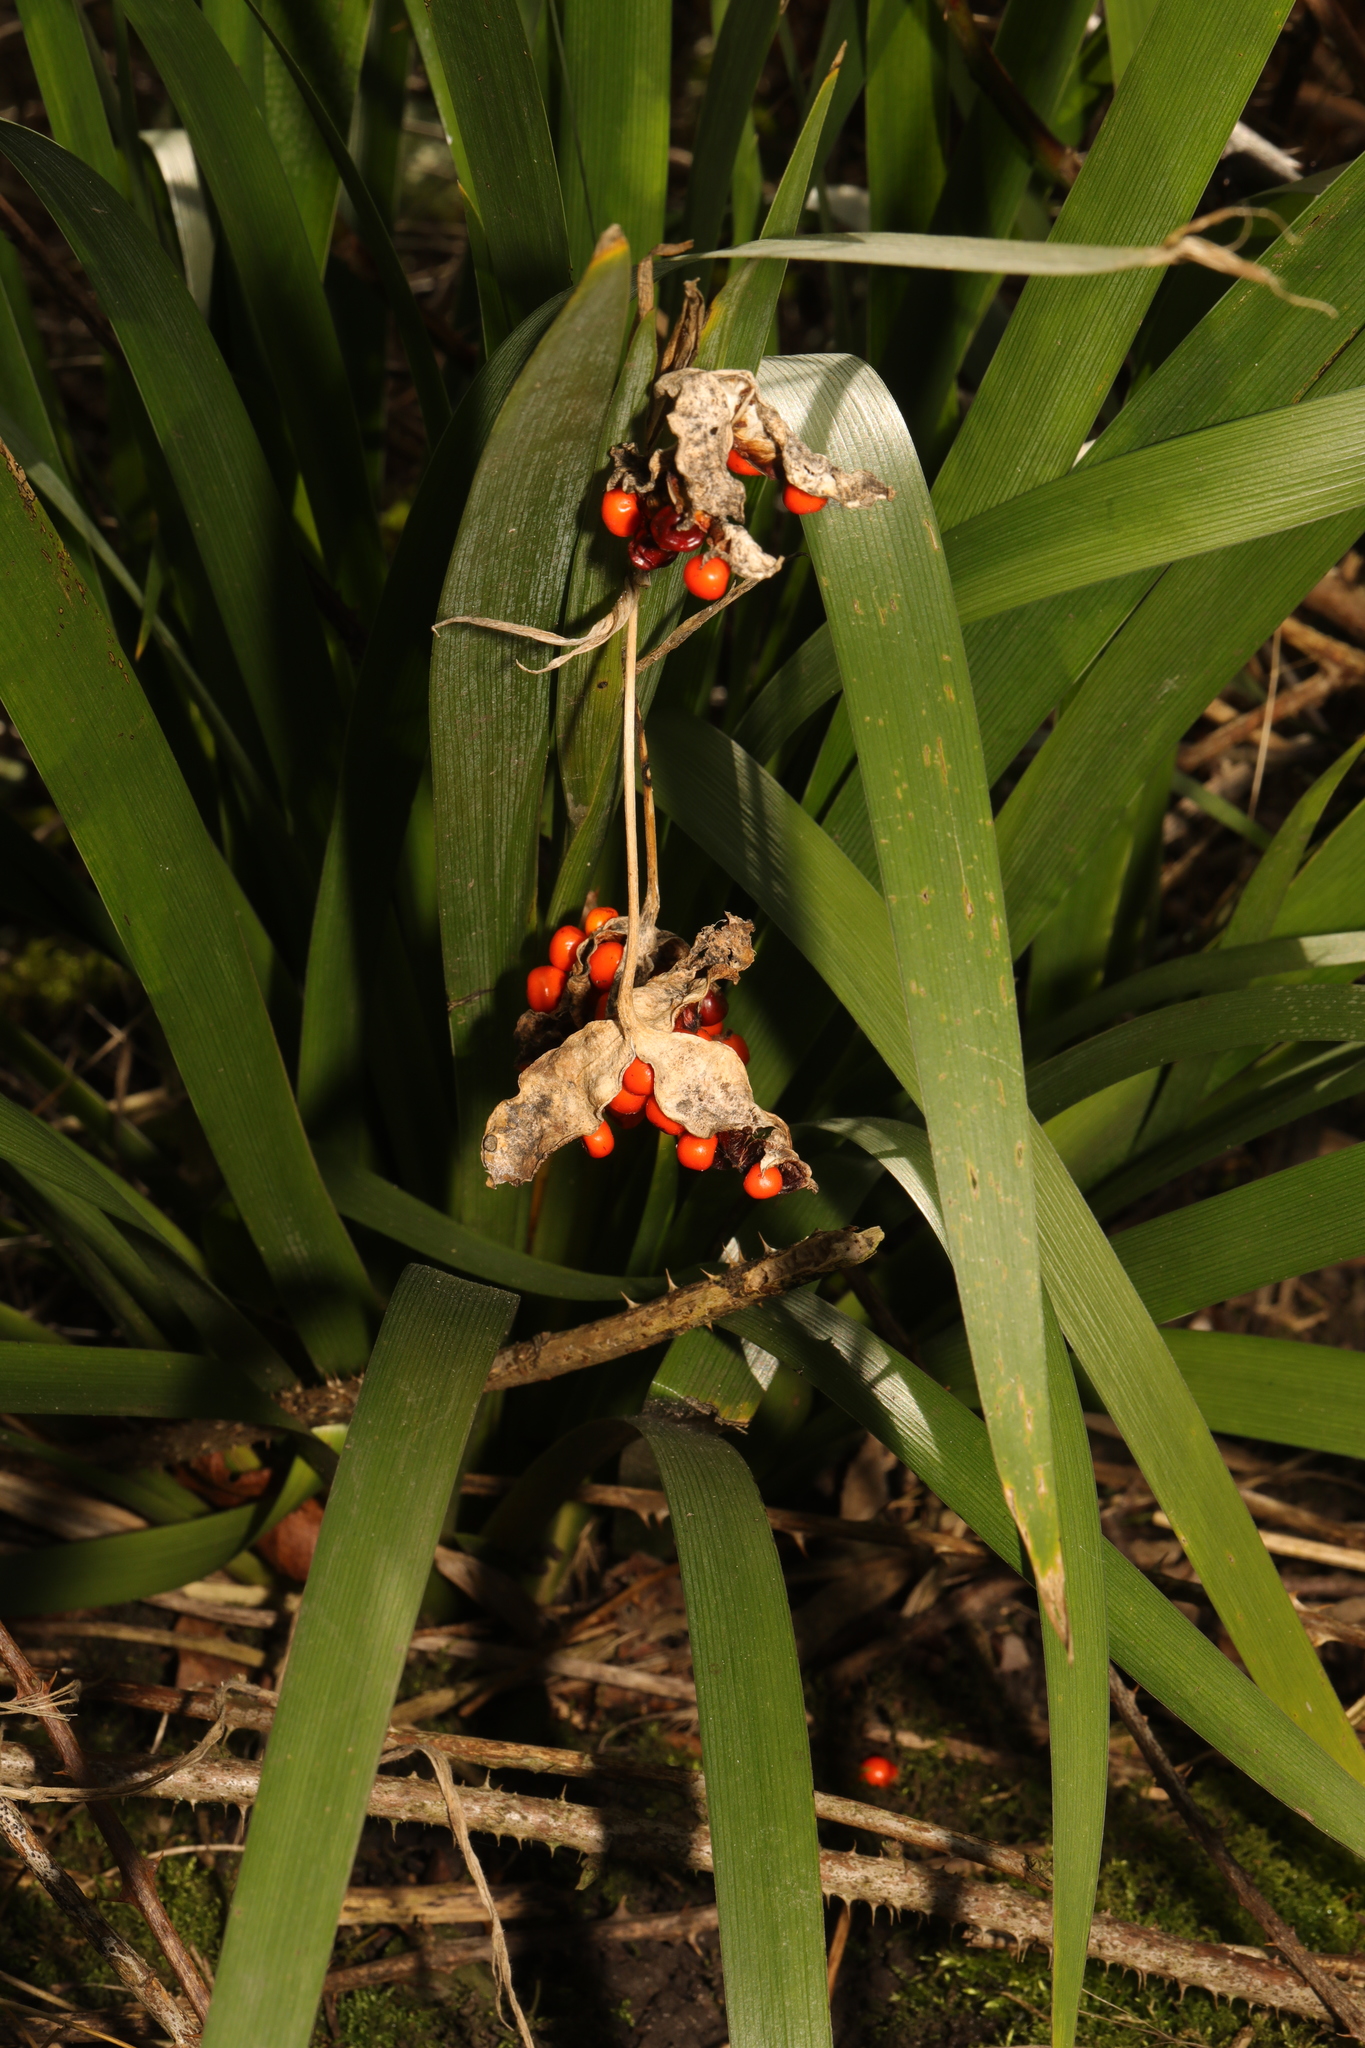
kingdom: Plantae
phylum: Tracheophyta
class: Liliopsida
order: Asparagales
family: Iridaceae
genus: Iris
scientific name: Iris foetidissima
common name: Stinking iris
